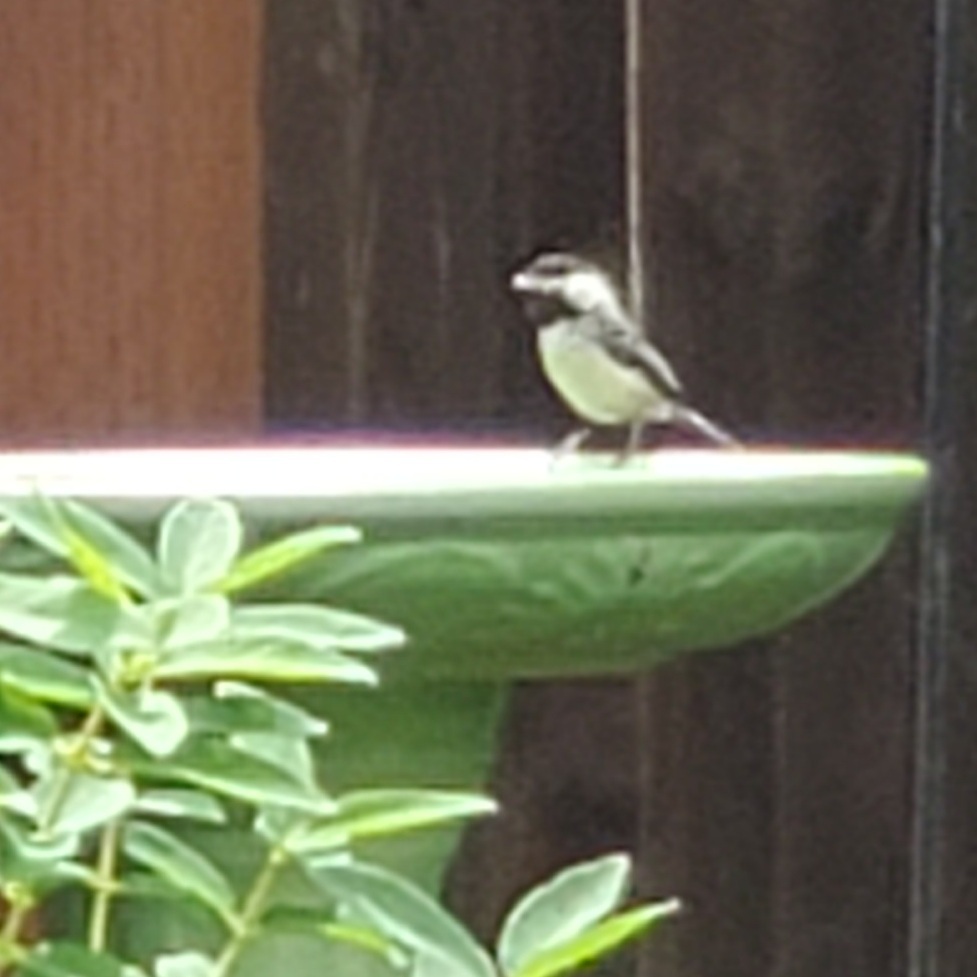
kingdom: Animalia
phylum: Chordata
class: Aves
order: Passeriformes
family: Paridae
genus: Poecile
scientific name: Poecile atricapillus
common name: Black-capped chickadee
